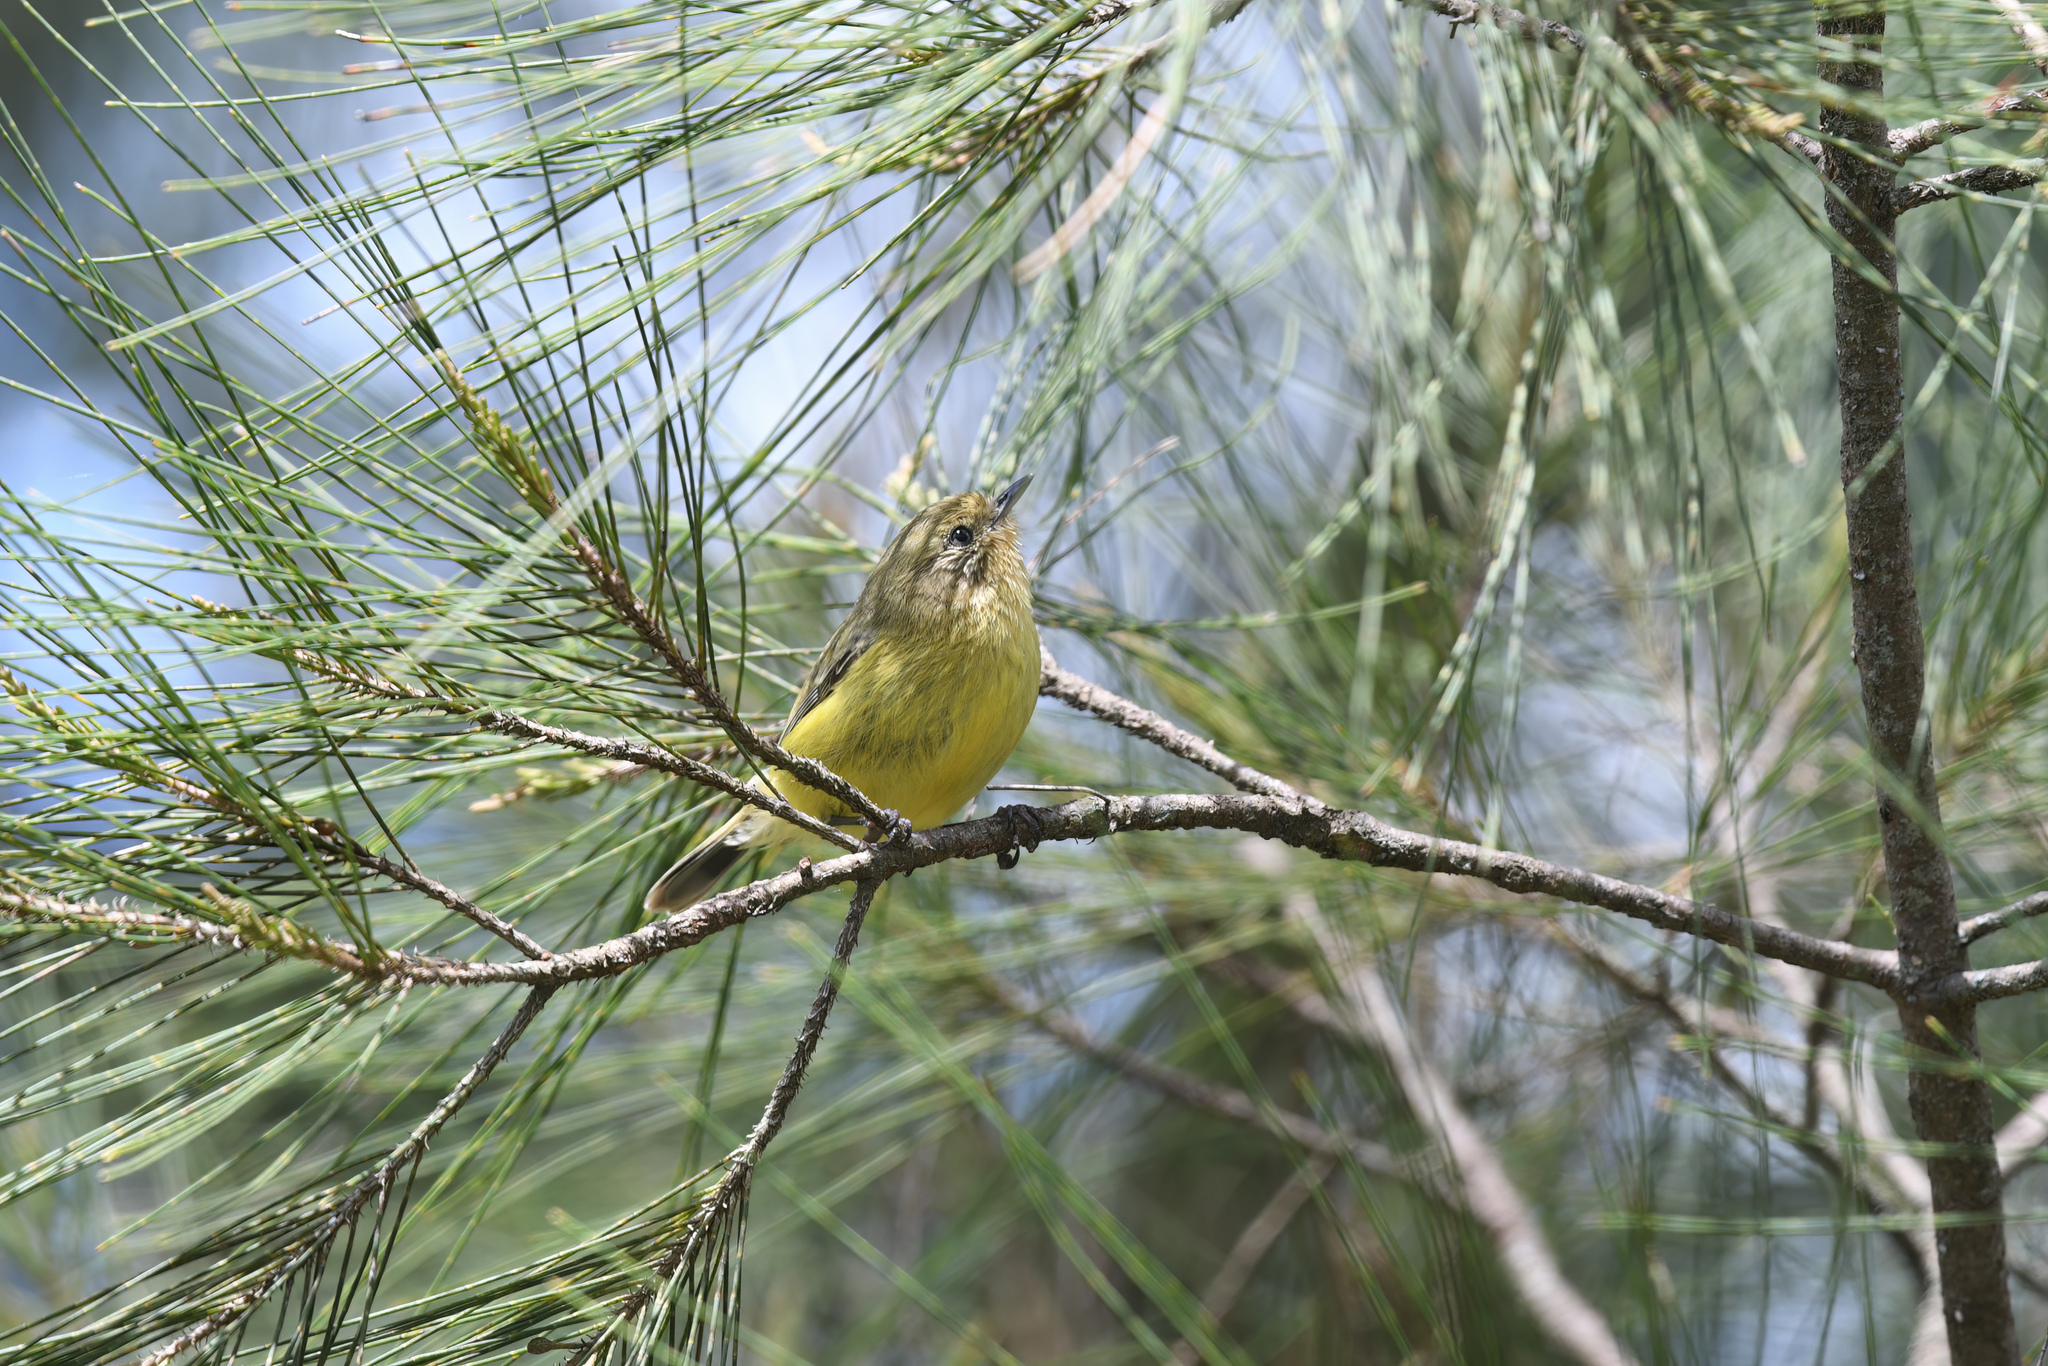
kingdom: Animalia
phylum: Chordata
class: Aves
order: Passeriformes
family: Acanthizidae
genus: Acanthiza
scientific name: Acanthiza nana
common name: Yellow thornbill
